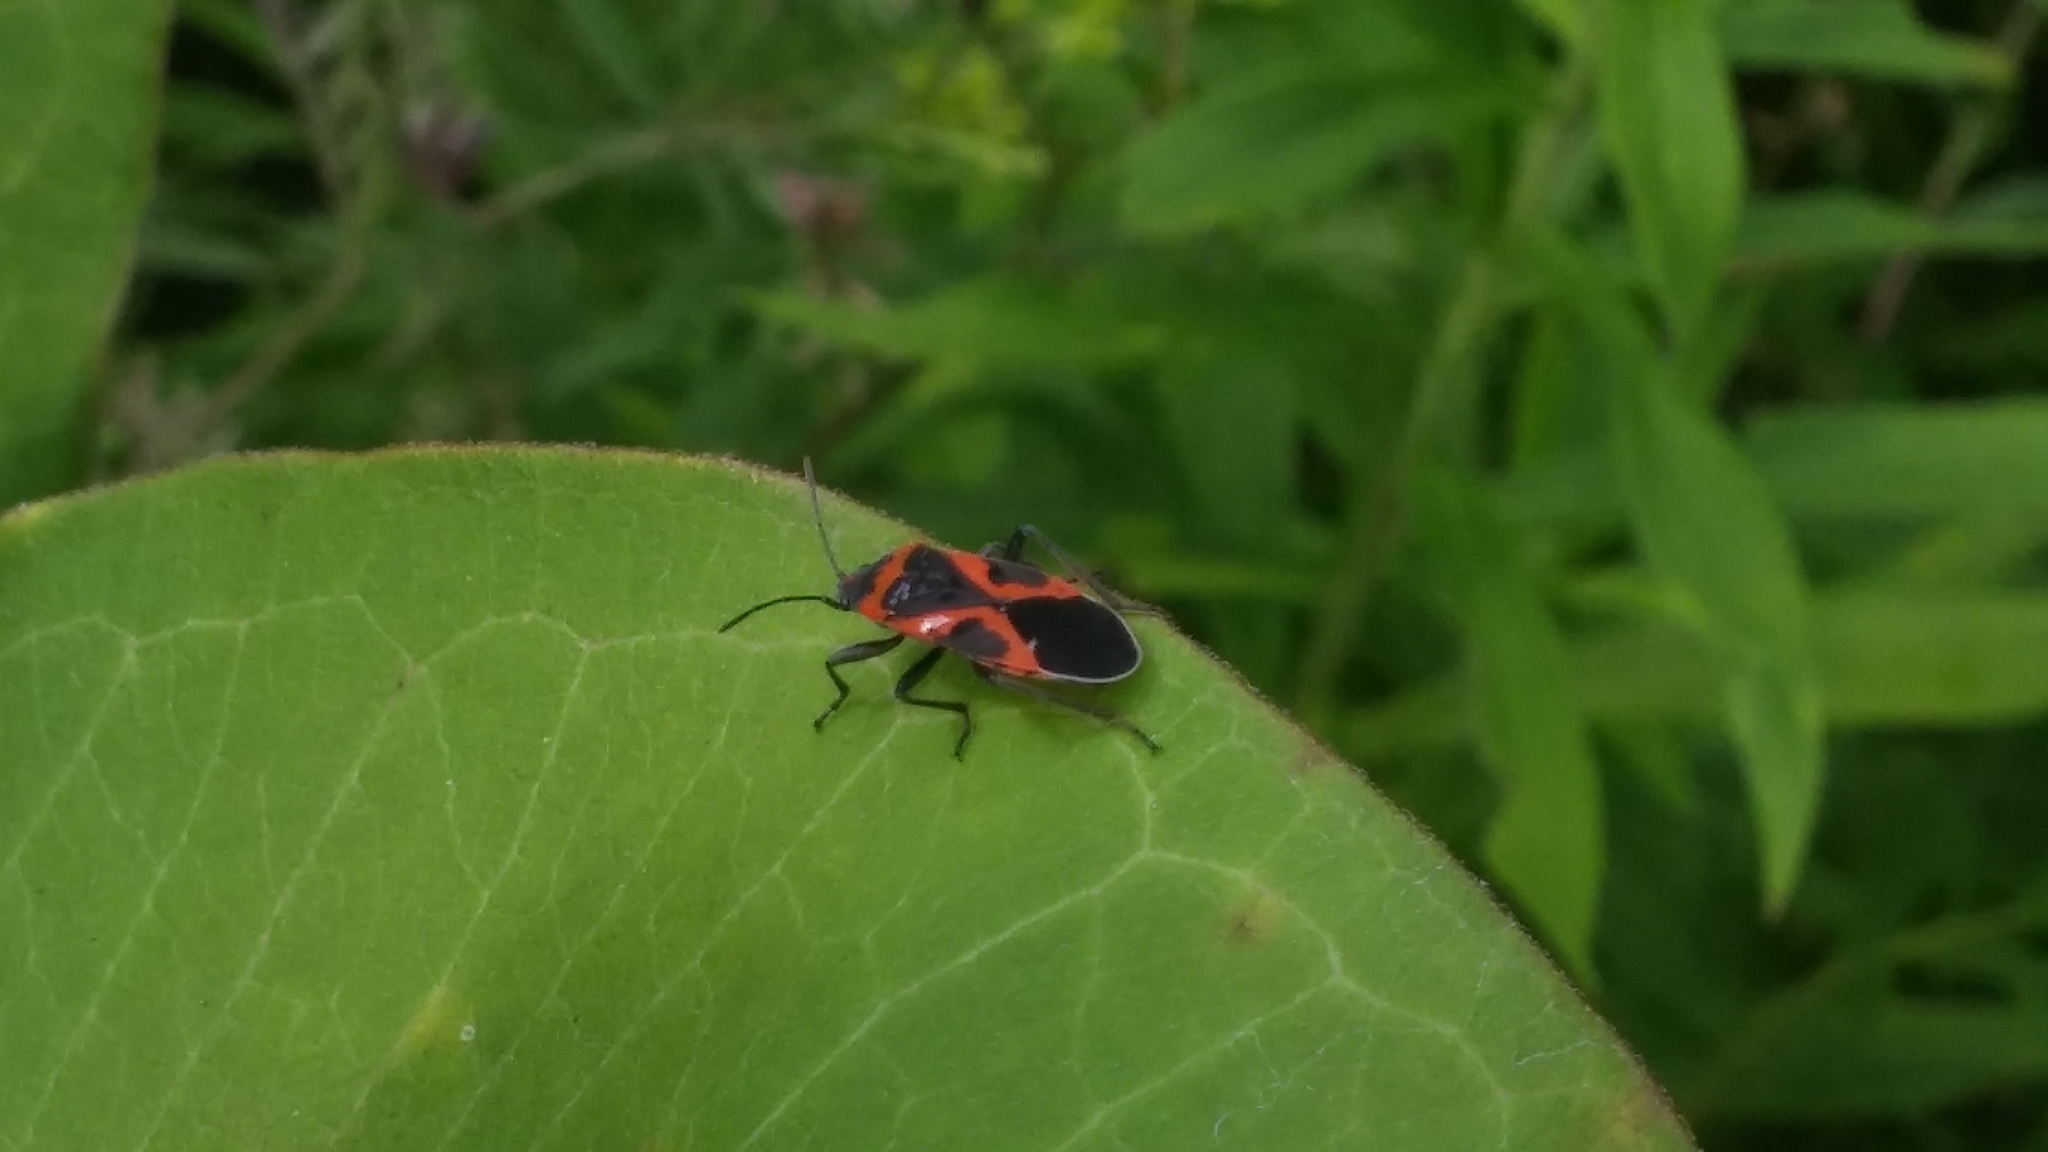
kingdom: Animalia
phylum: Arthropoda
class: Insecta
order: Hemiptera
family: Lygaeidae
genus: Lygaeus
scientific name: Lygaeus kalmii
